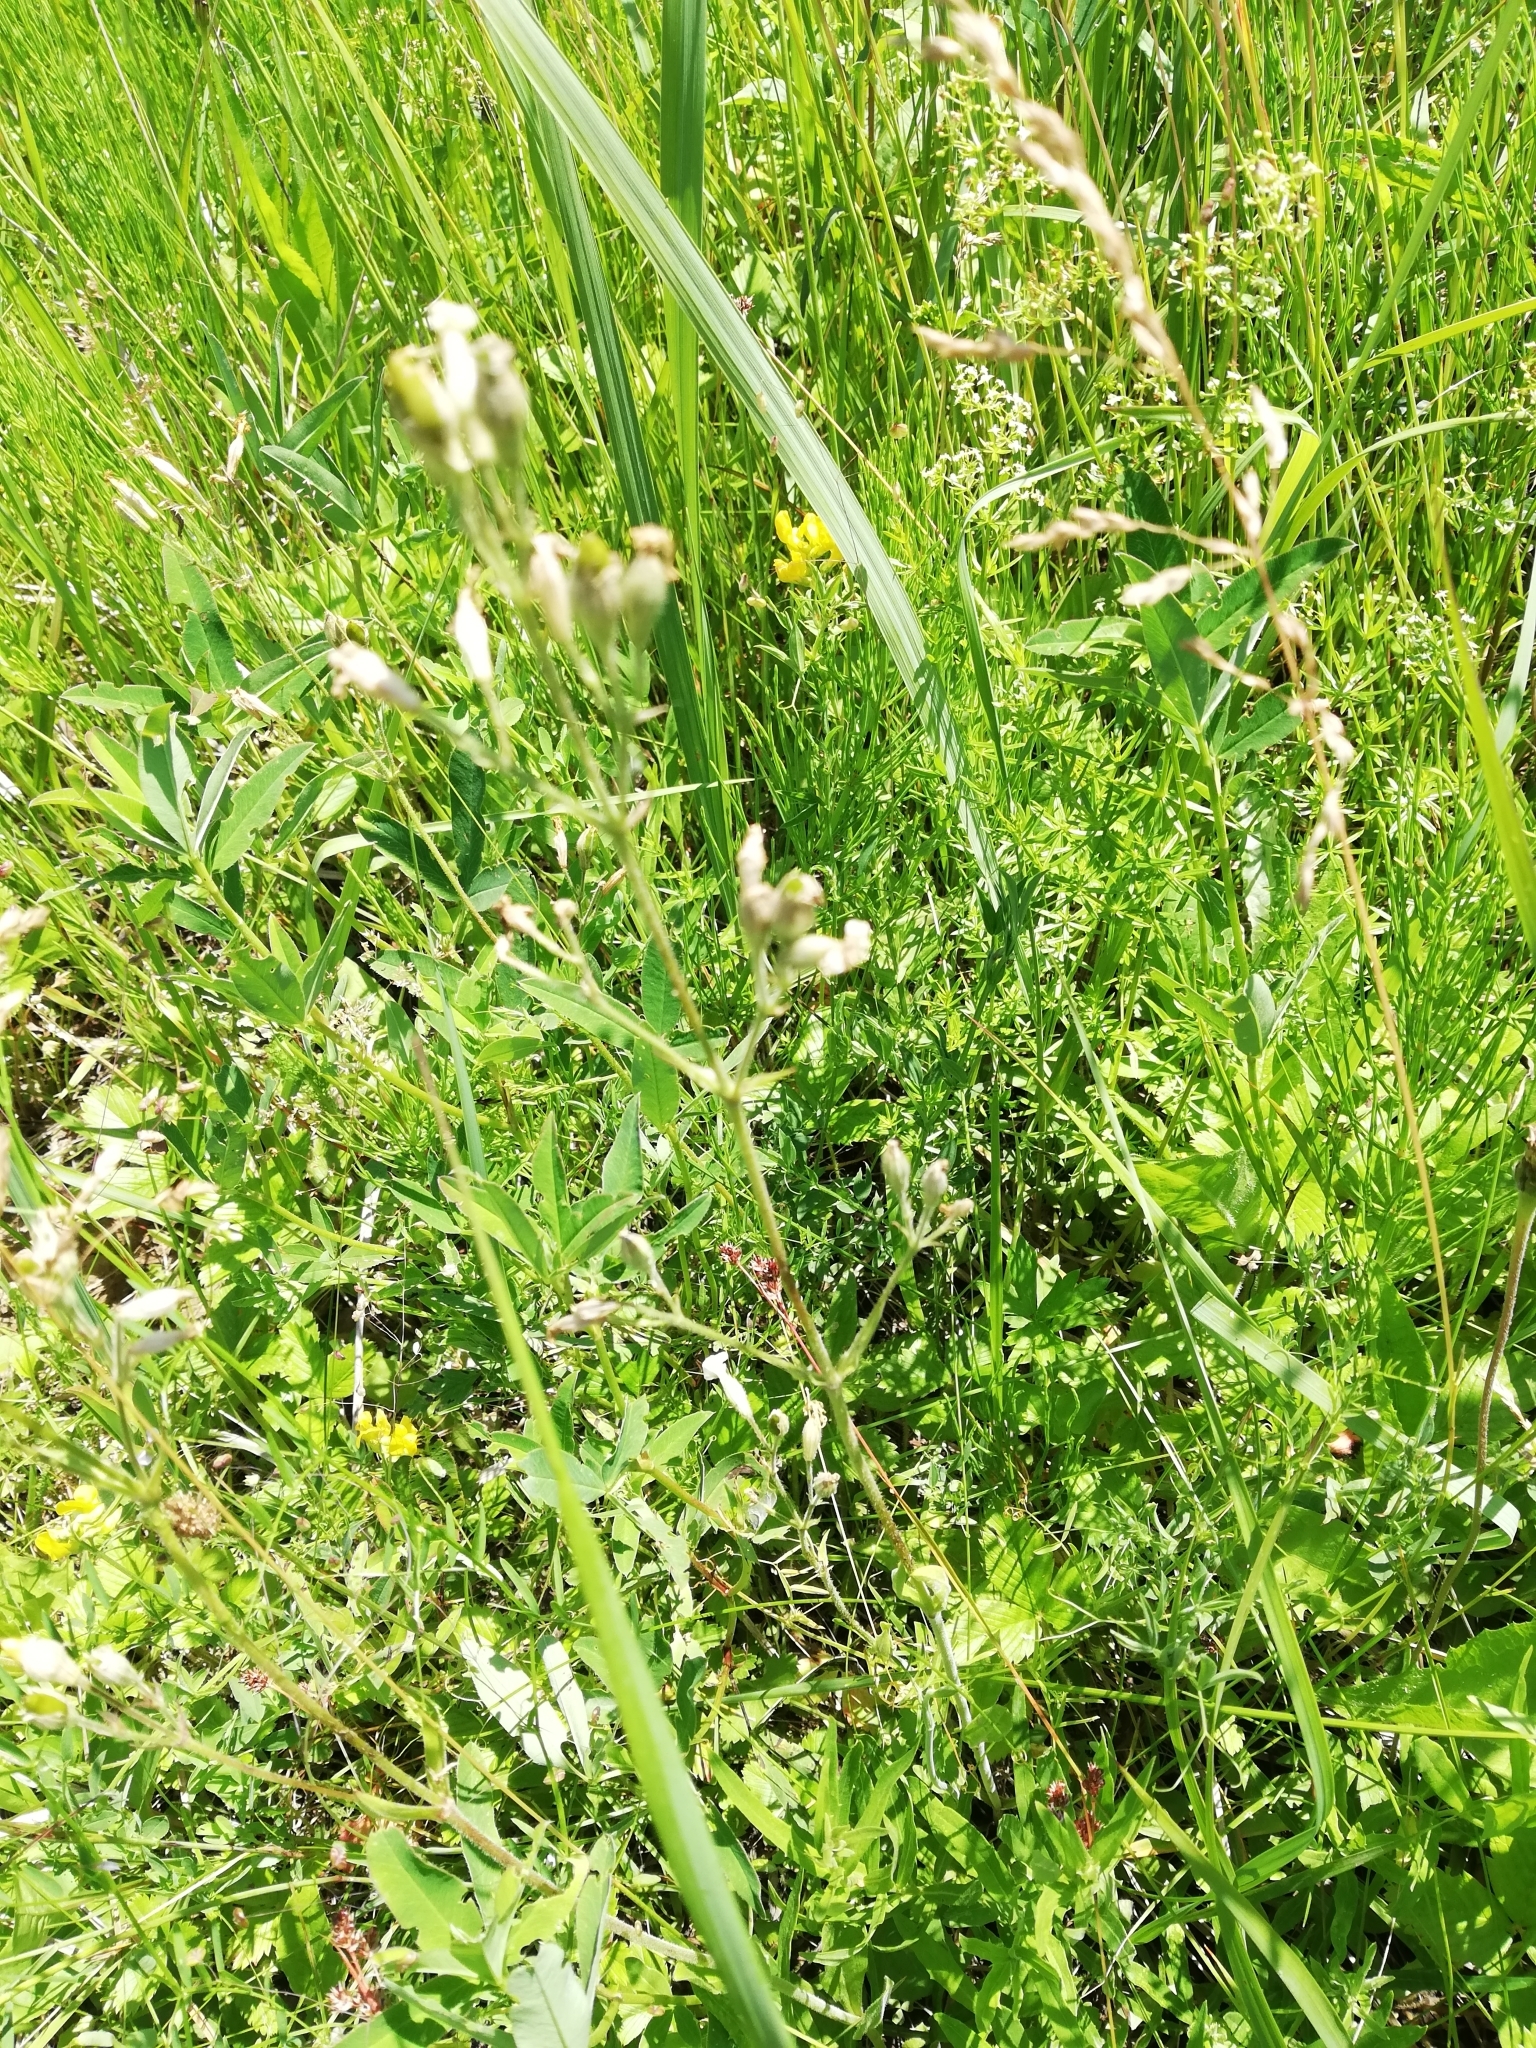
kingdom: Plantae
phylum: Tracheophyta
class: Magnoliopsida
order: Caryophyllales
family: Caryophyllaceae
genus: Silene
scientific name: Silene nutans
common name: Nottingham catchfly
